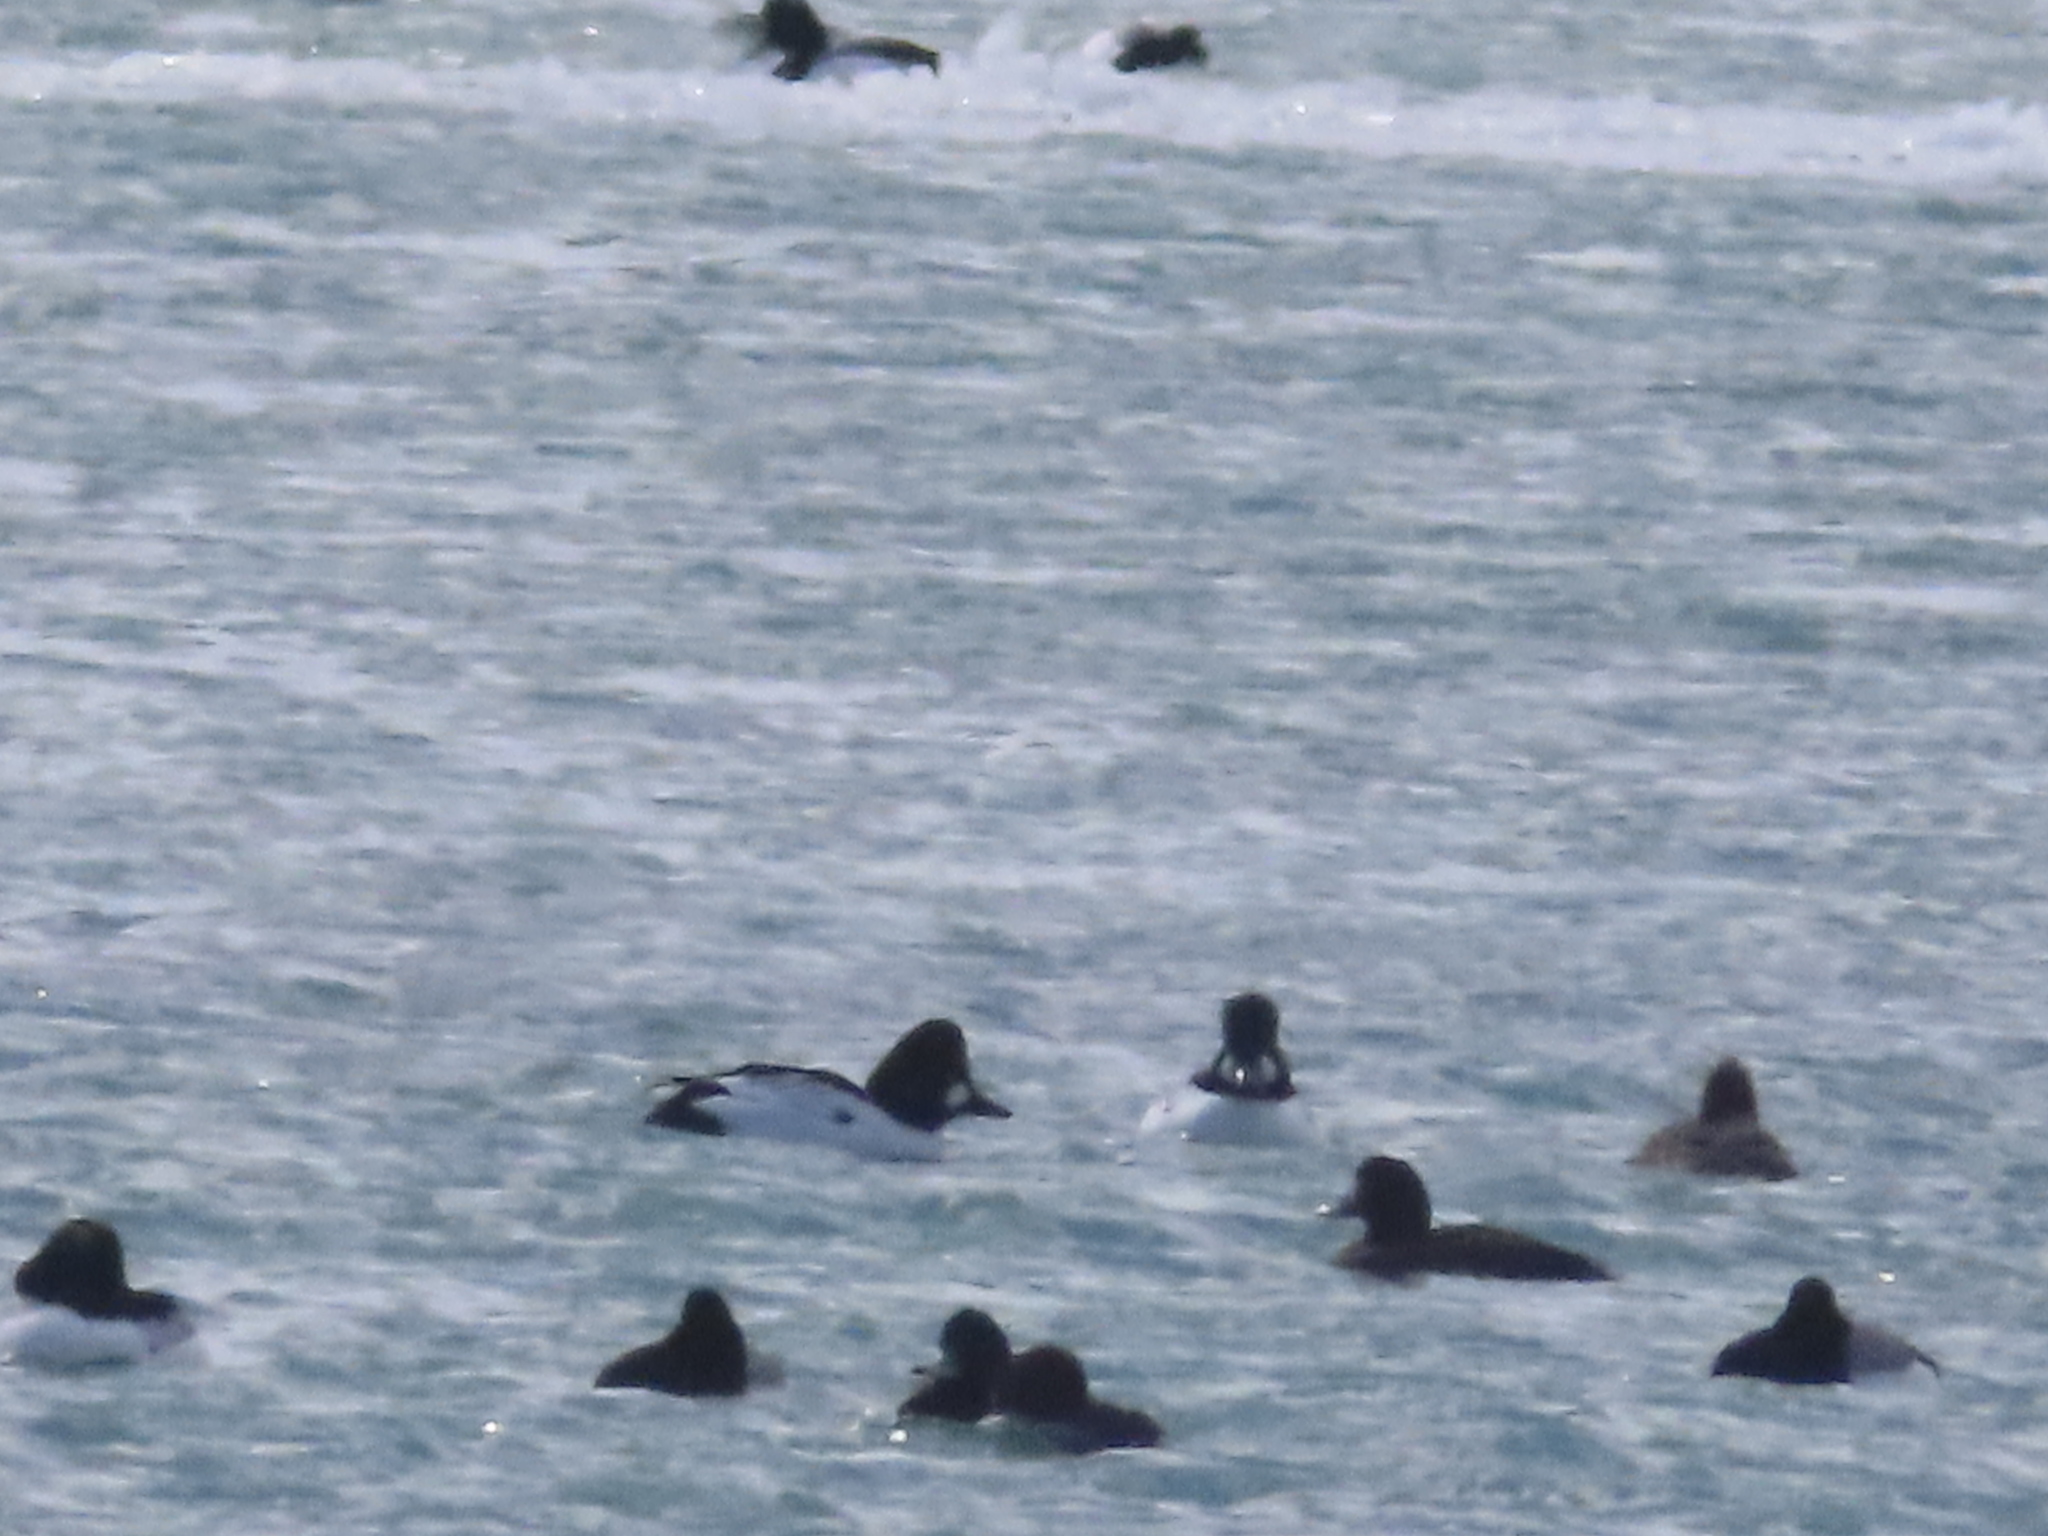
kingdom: Animalia
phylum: Chordata
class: Aves
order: Anseriformes
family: Anatidae
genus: Bucephala
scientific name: Bucephala clangula
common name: Common goldeneye
